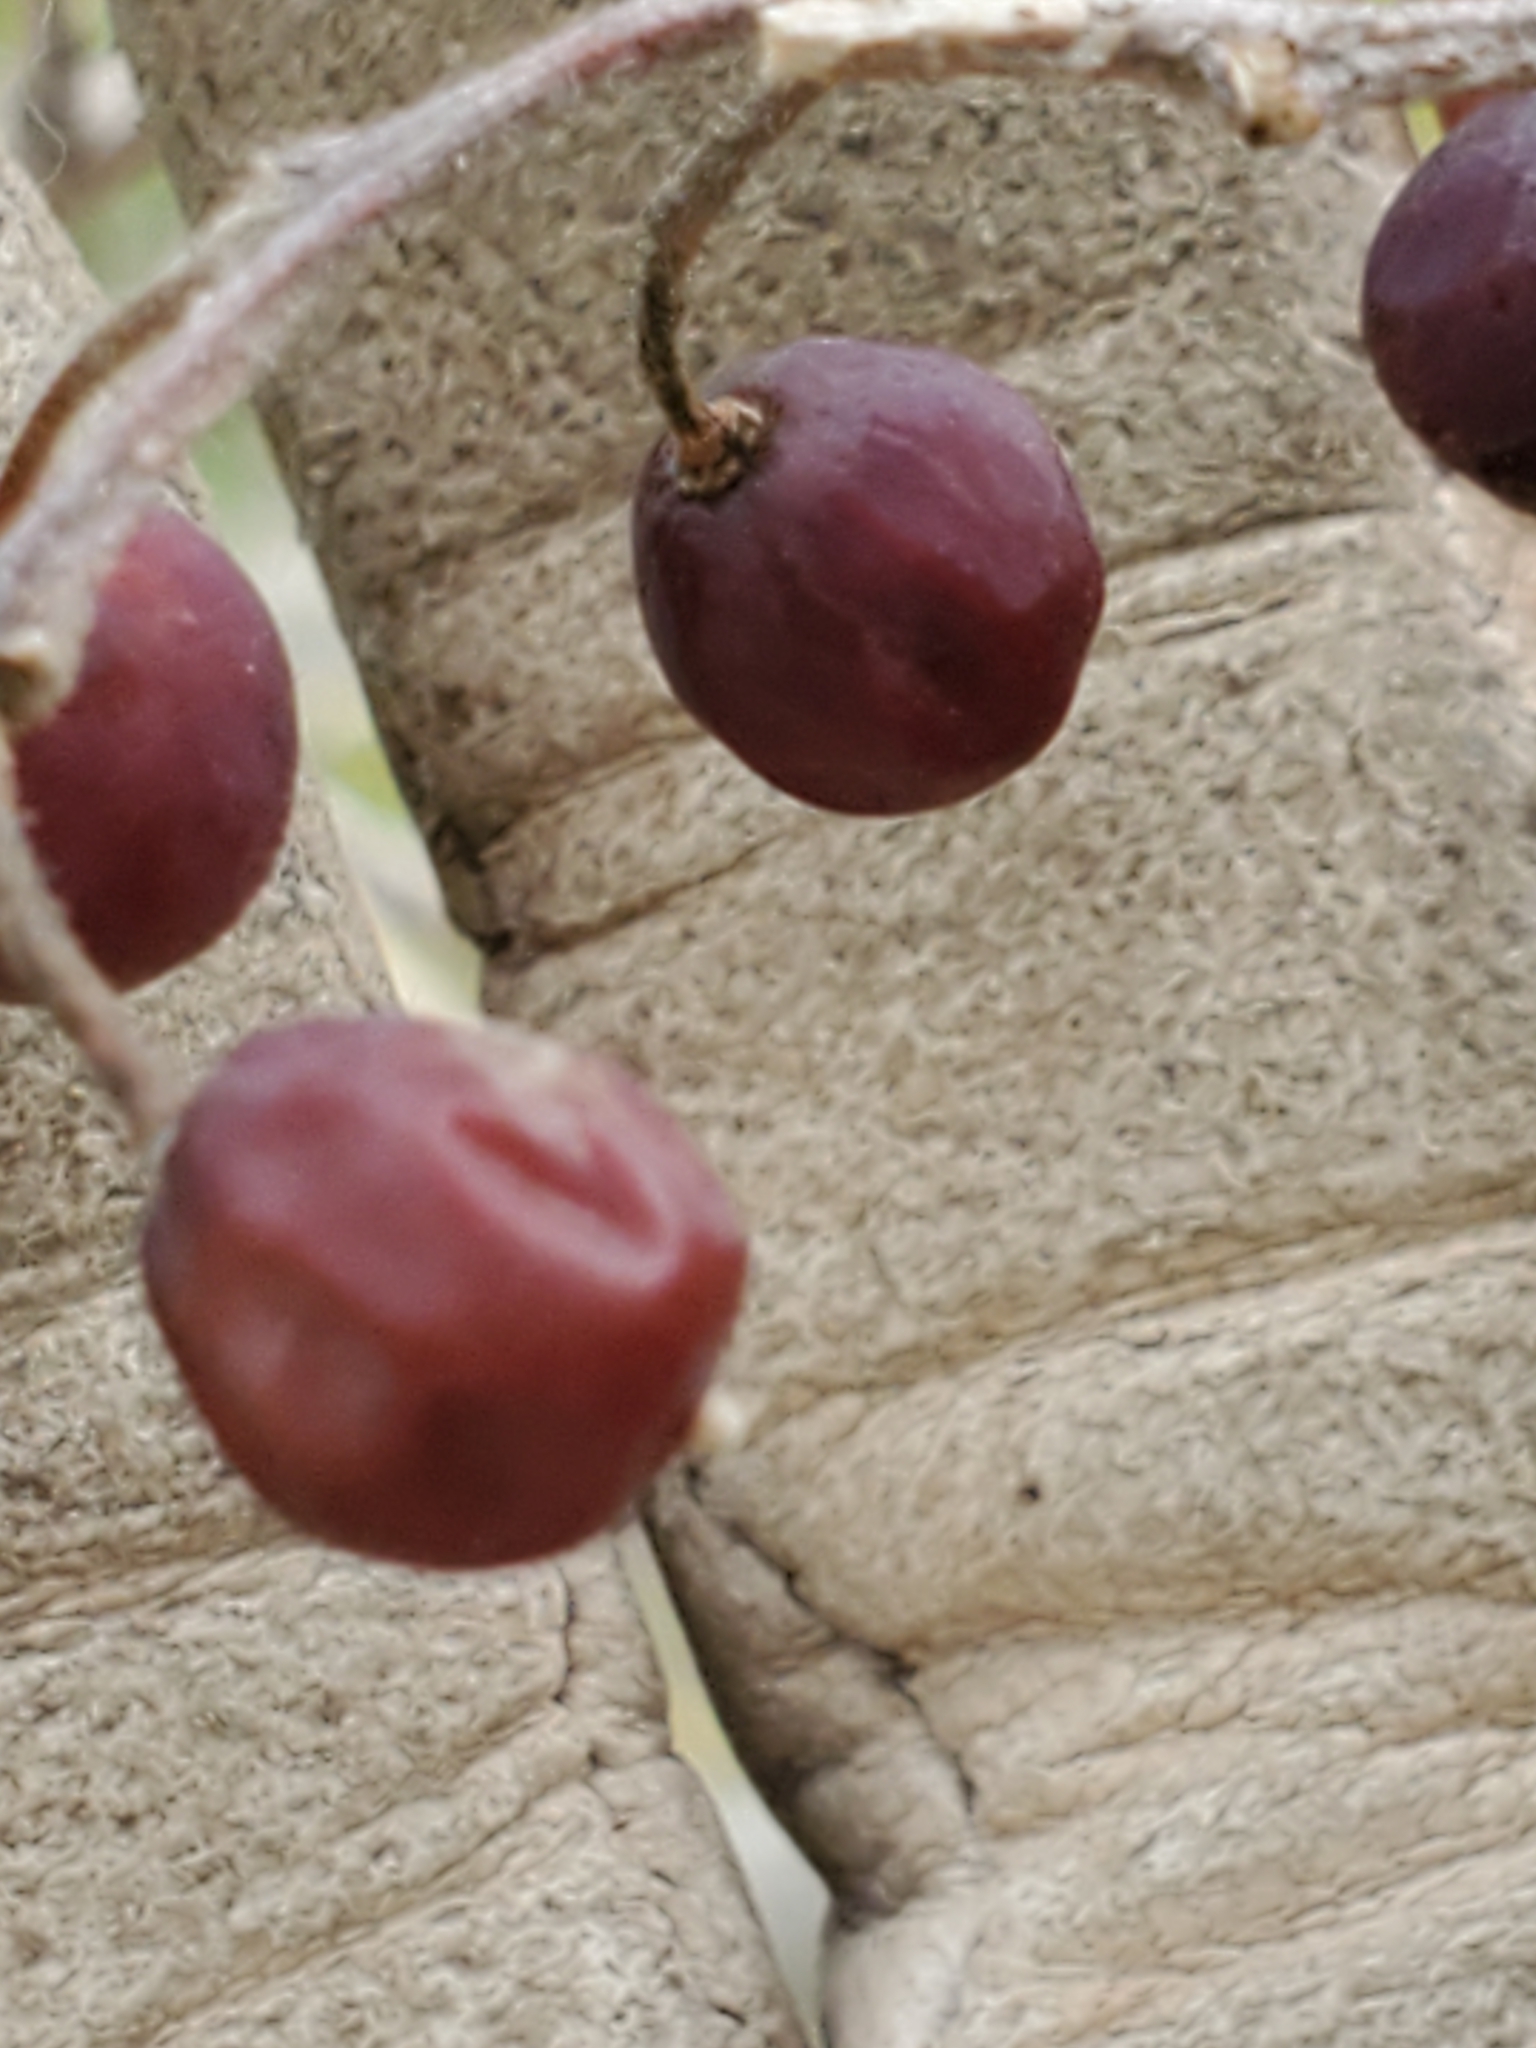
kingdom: Plantae
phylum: Tracheophyta
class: Magnoliopsida
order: Rosales
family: Cannabaceae
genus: Celtis
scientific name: Celtis reticulata
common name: Netleaf hackberry
